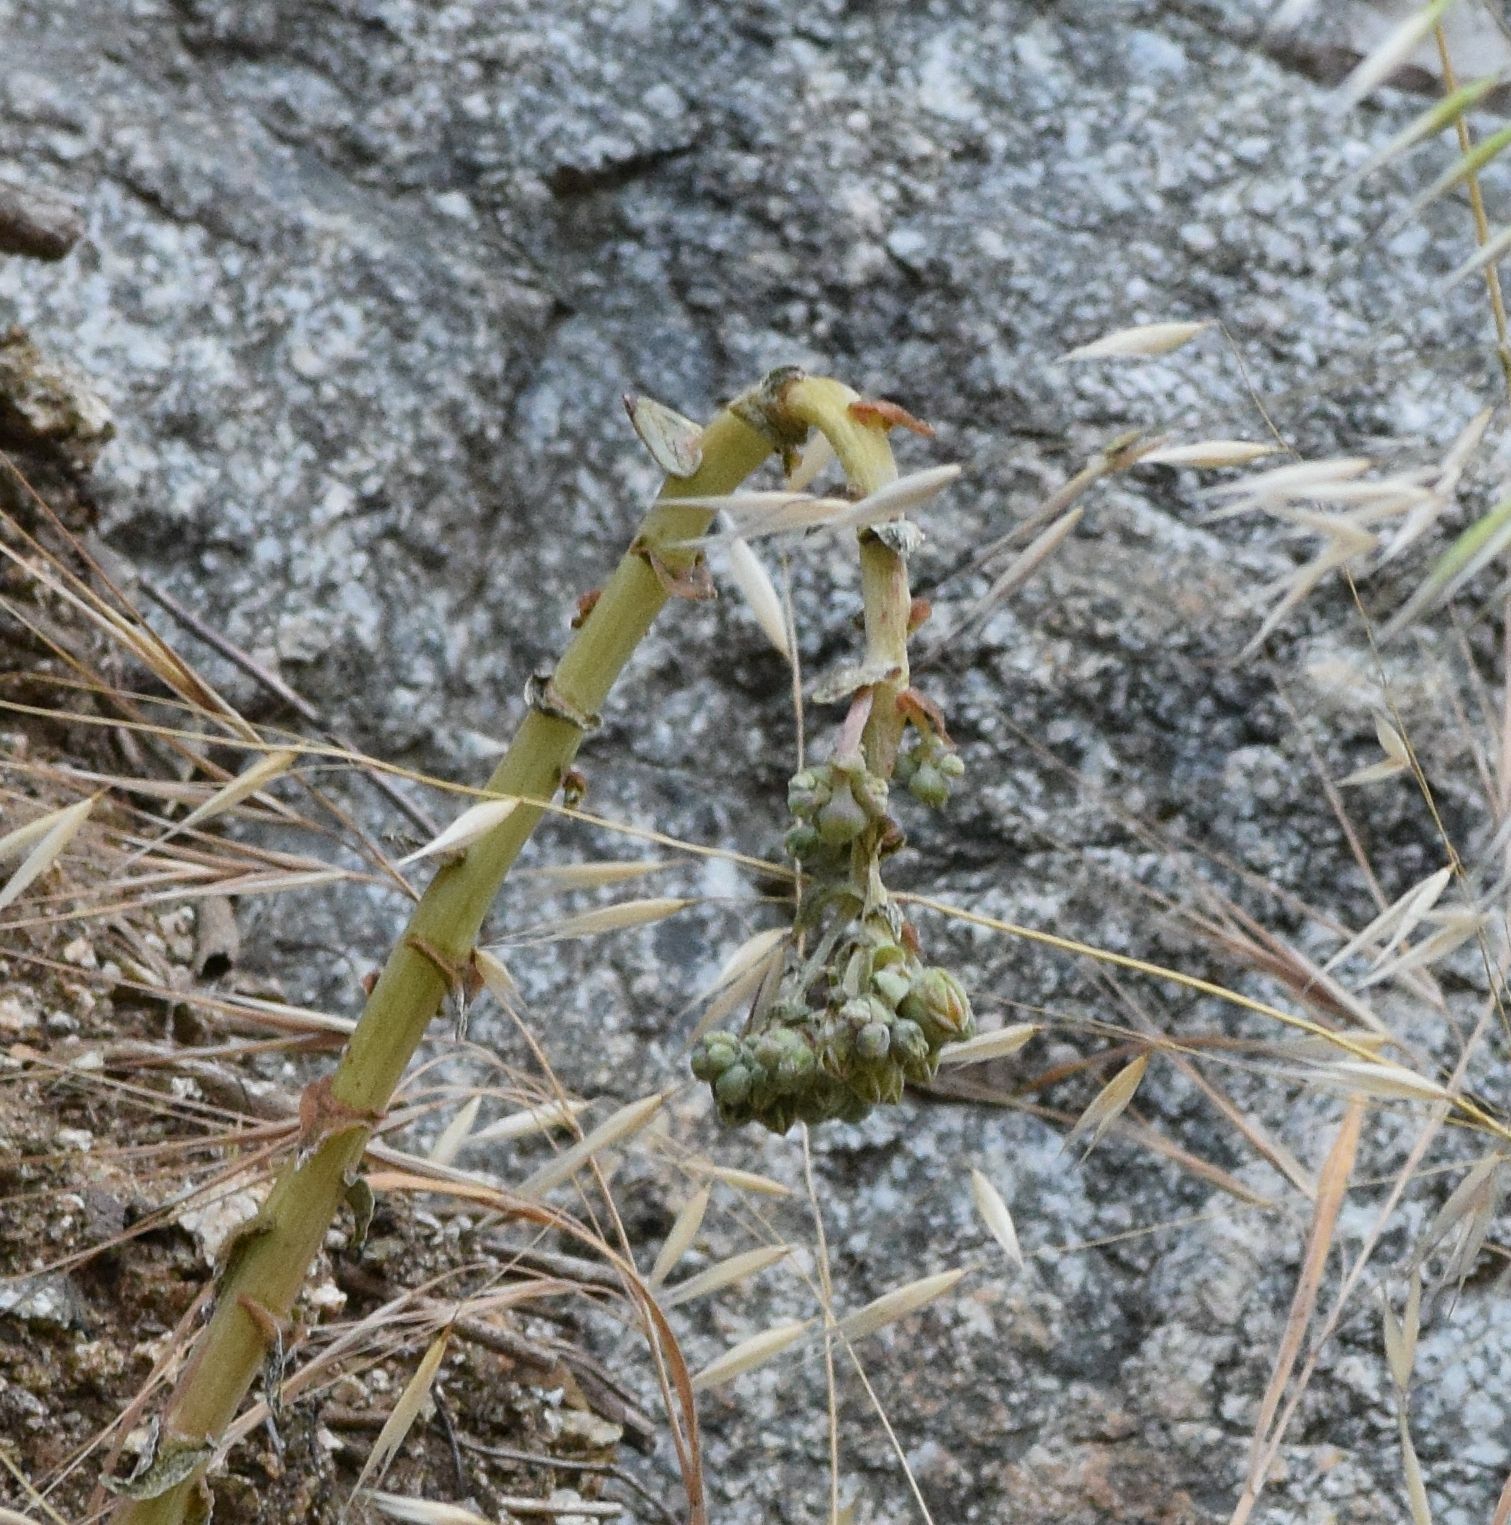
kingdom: Plantae
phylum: Tracheophyta
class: Magnoliopsida
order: Saxifragales
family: Crassulaceae
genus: Dudleya
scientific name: Dudleya lanceolata
